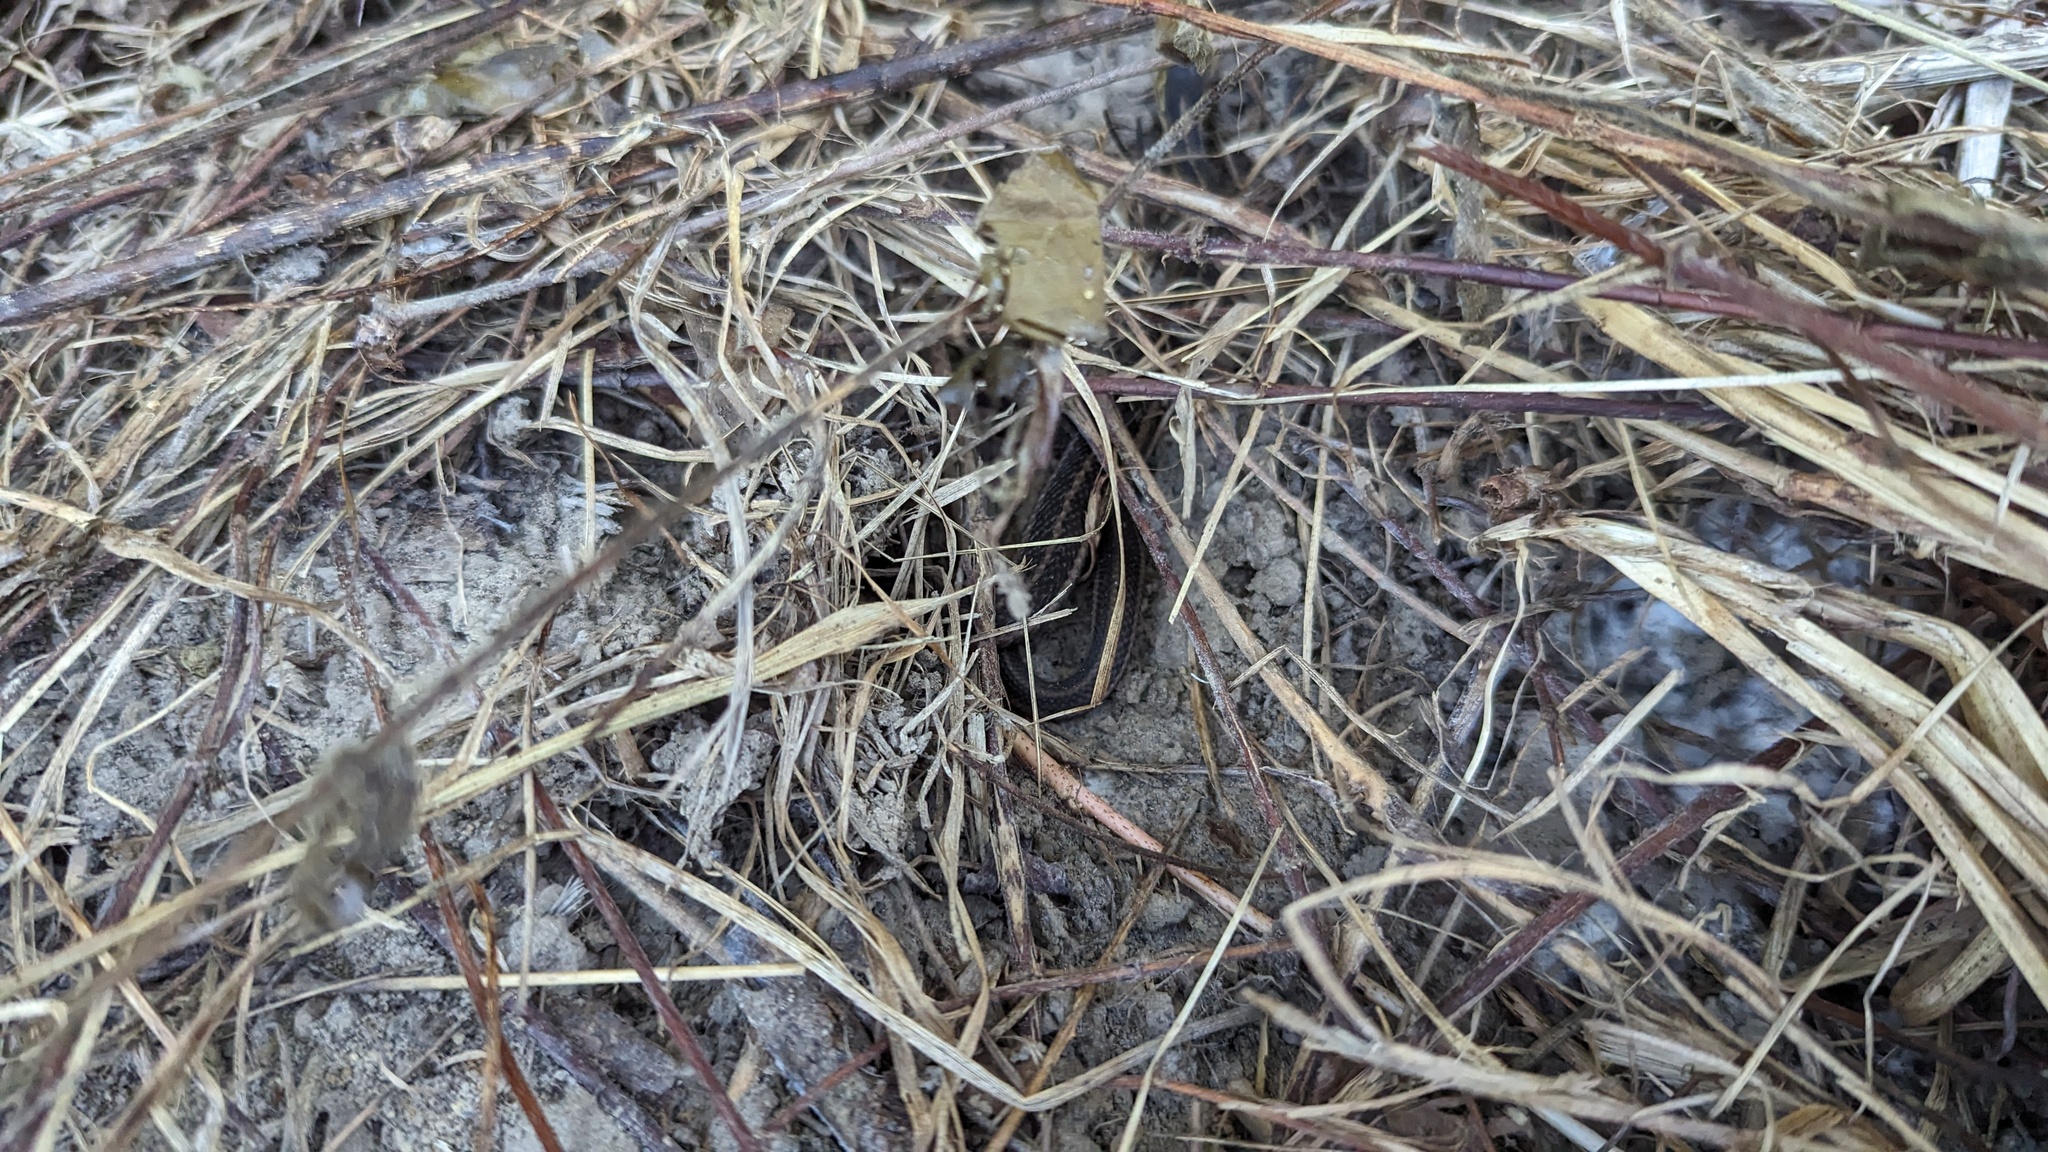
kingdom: Animalia
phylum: Chordata
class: Squamata
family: Colubridae
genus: Thamnophis
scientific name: Thamnophis sirtalis
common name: Common garter snake
